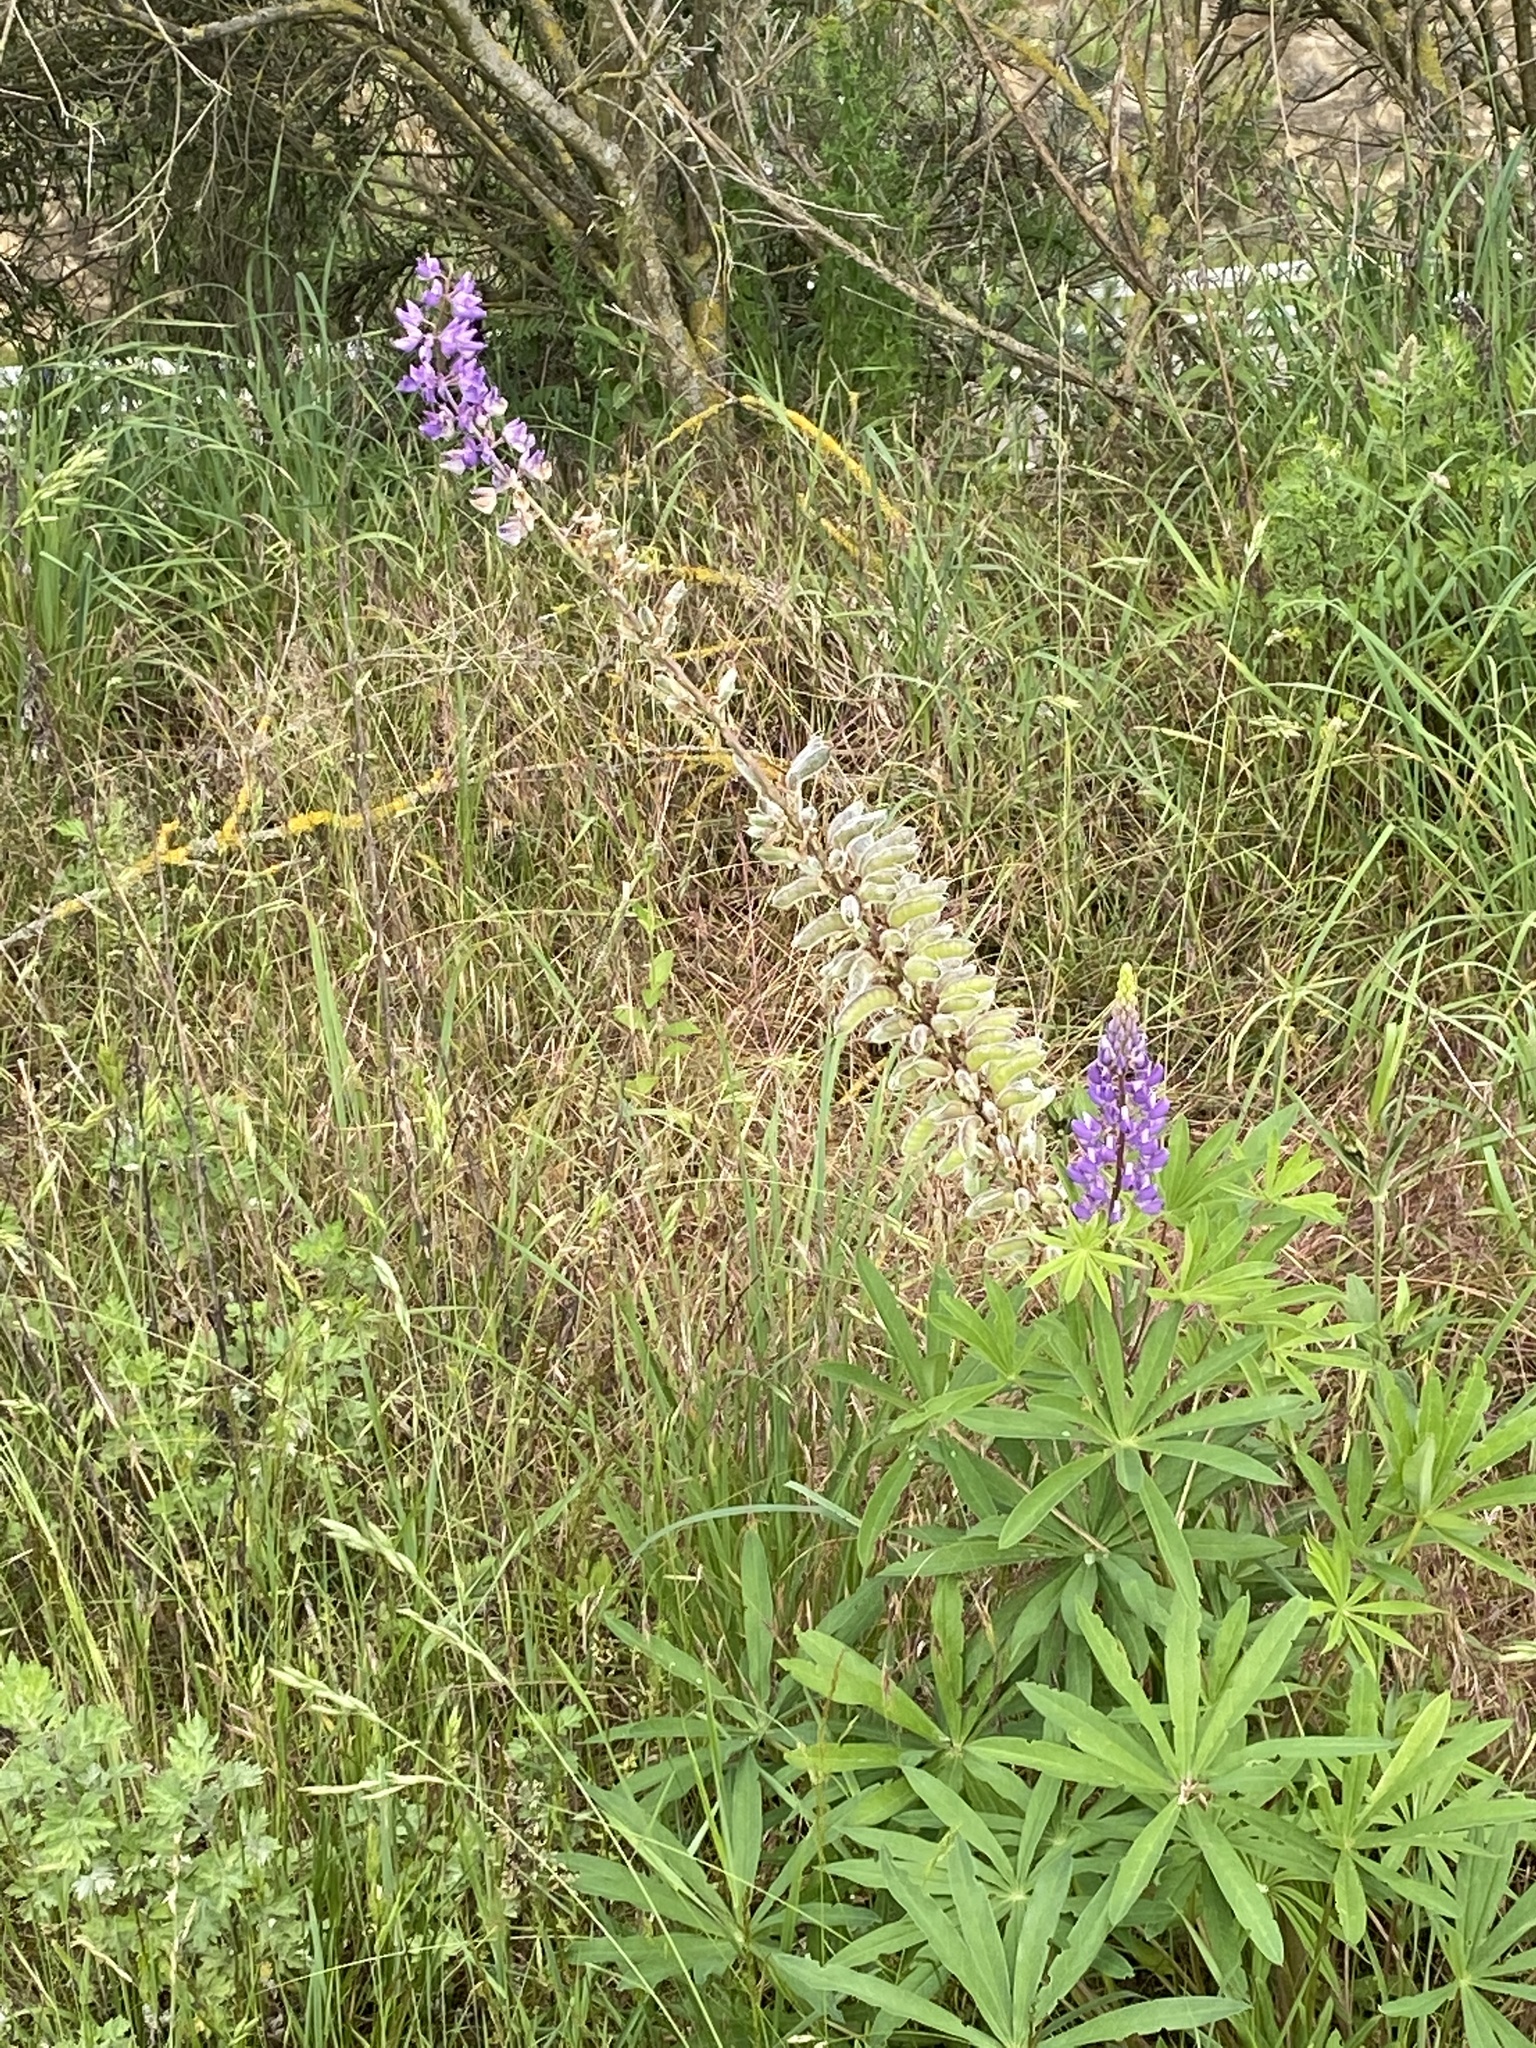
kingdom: Plantae
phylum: Tracheophyta
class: Magnoliopsida
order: Fabales
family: Fabaceae
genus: Lupinus
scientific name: Lupinus polyphyllus
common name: Garden lupin
